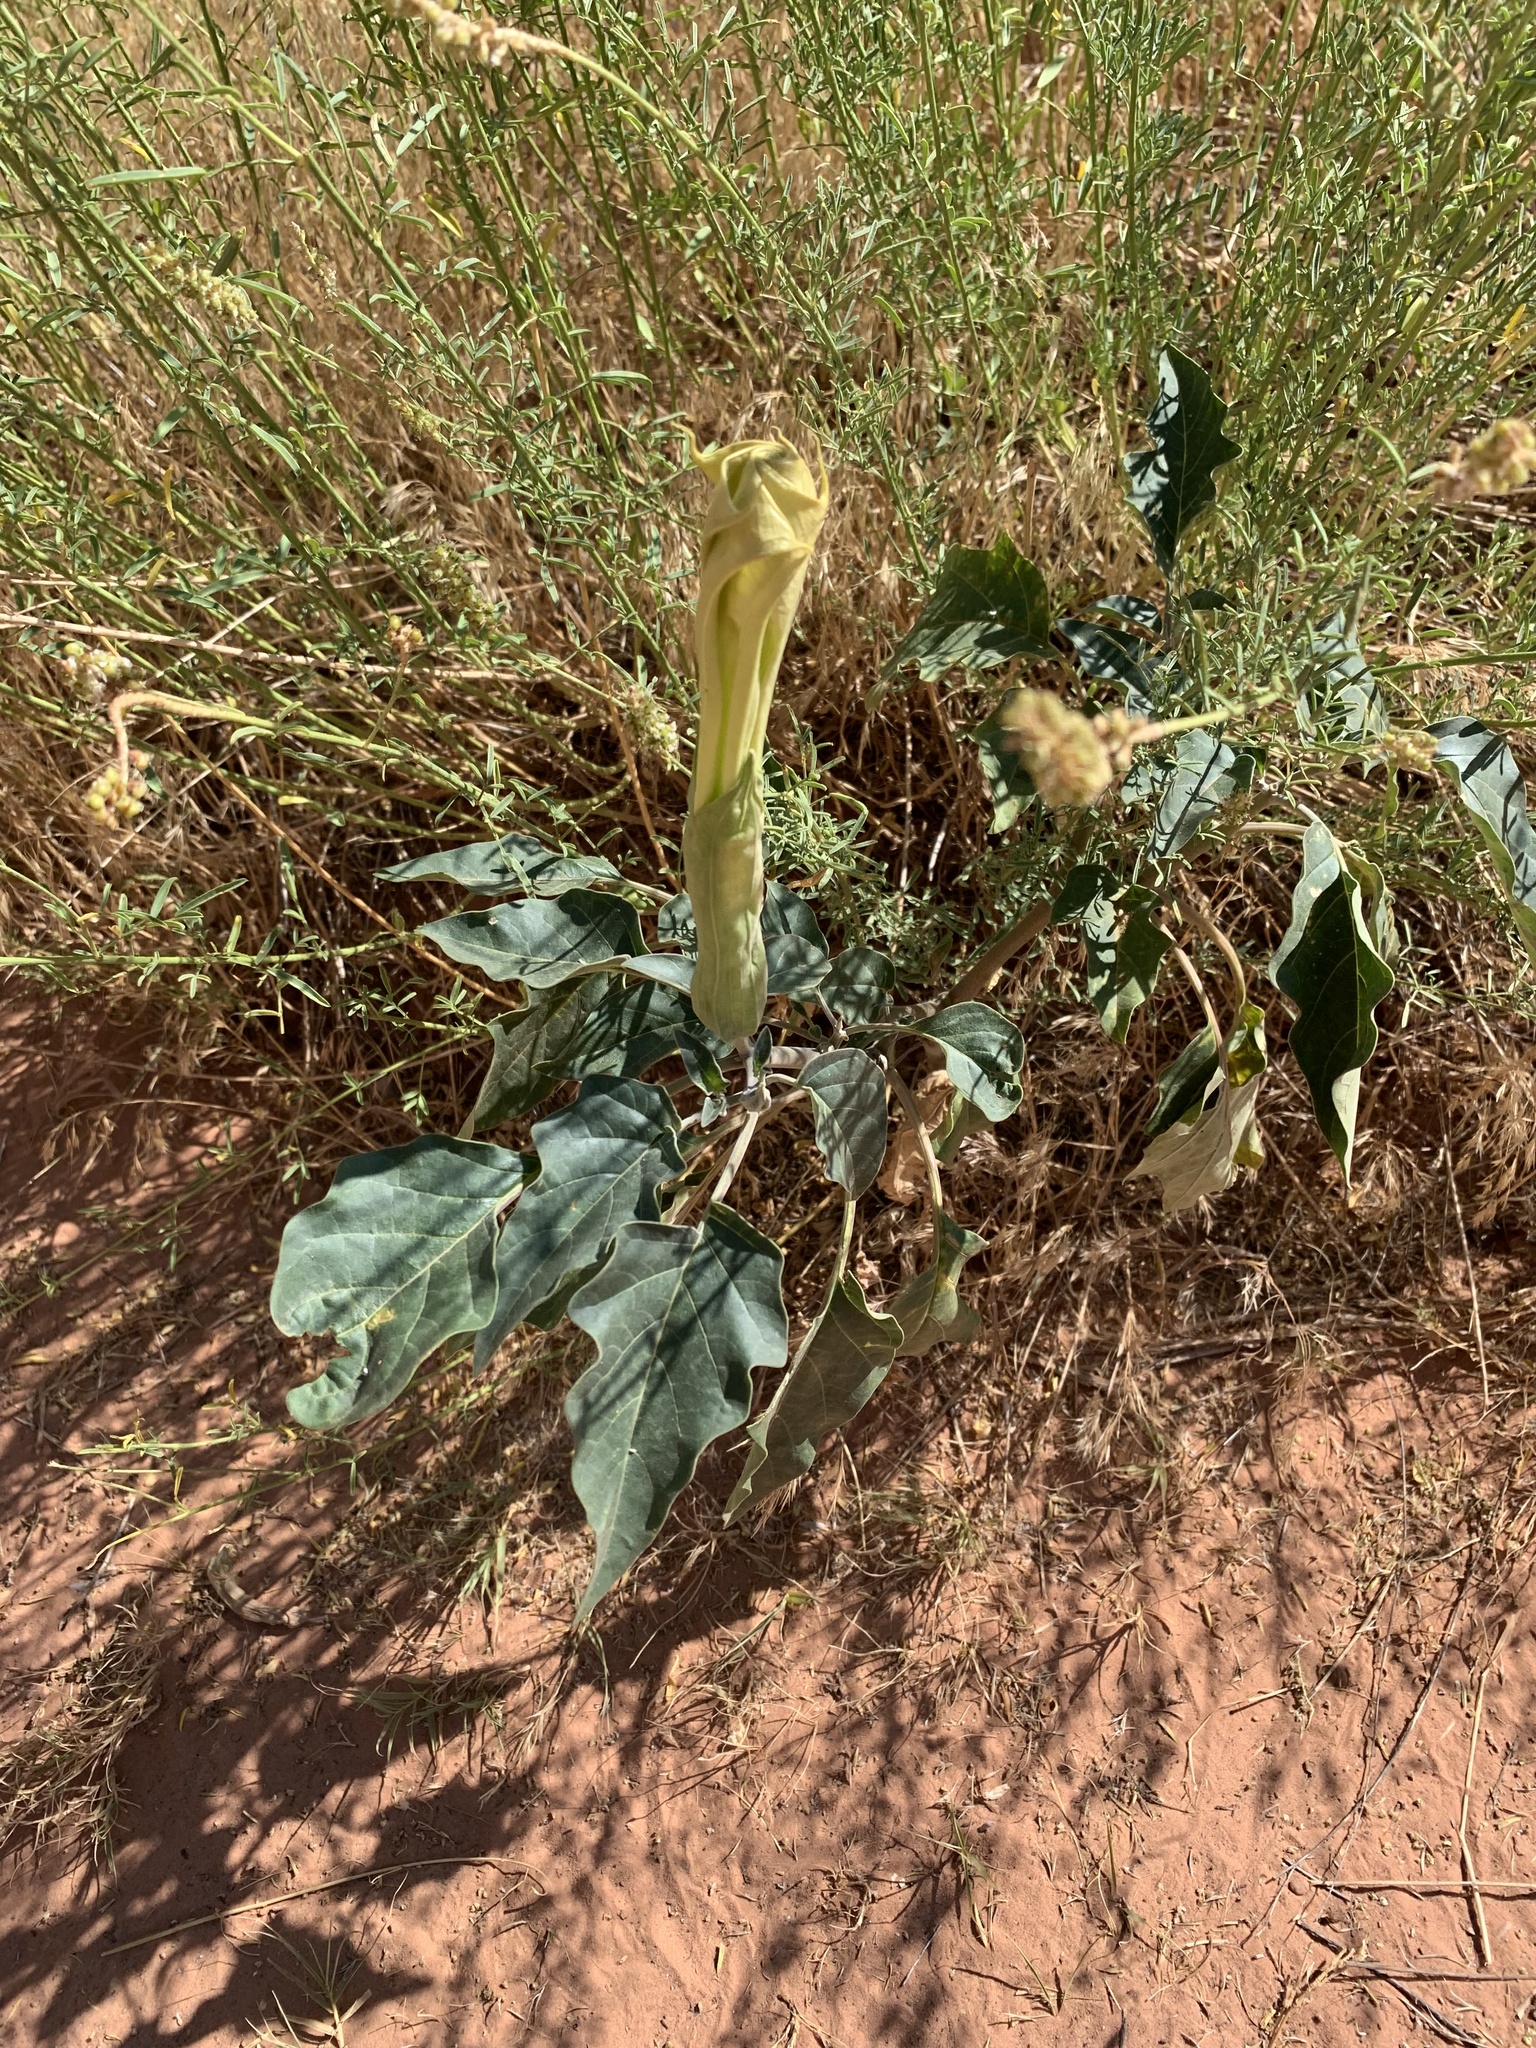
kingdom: Plantae
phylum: Tracheophyta
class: Magnoliopsida
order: Solanales
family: Solanaceae
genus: Datura
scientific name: Datura wrightii
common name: Sacred thorn-apple
